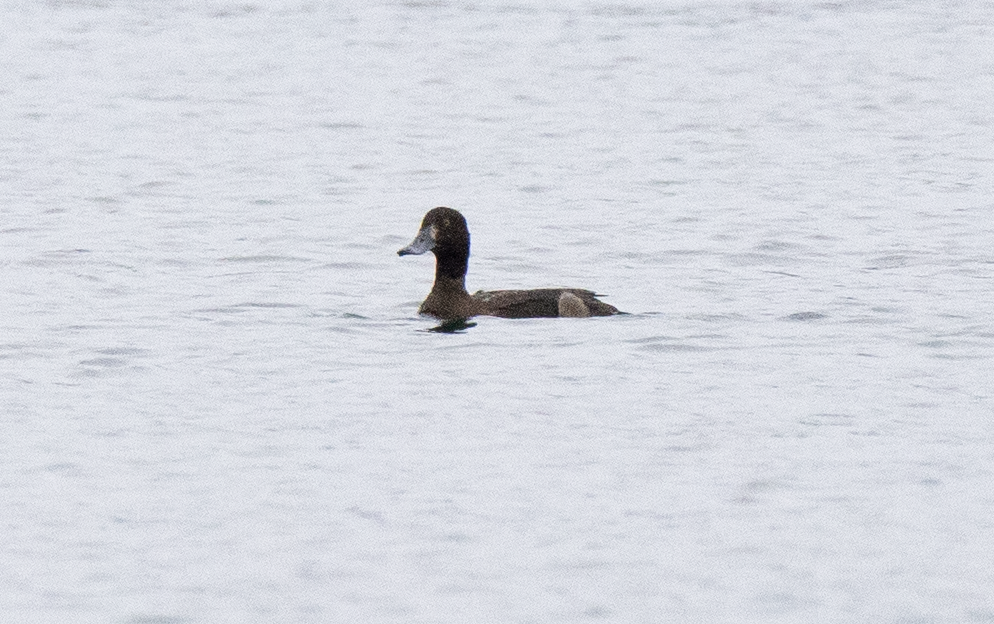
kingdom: Animalia
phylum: Chordata
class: Aves
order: Anseriformes
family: Anatidae
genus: Aythya
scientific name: Aythya fuligula
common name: Tufted duck
